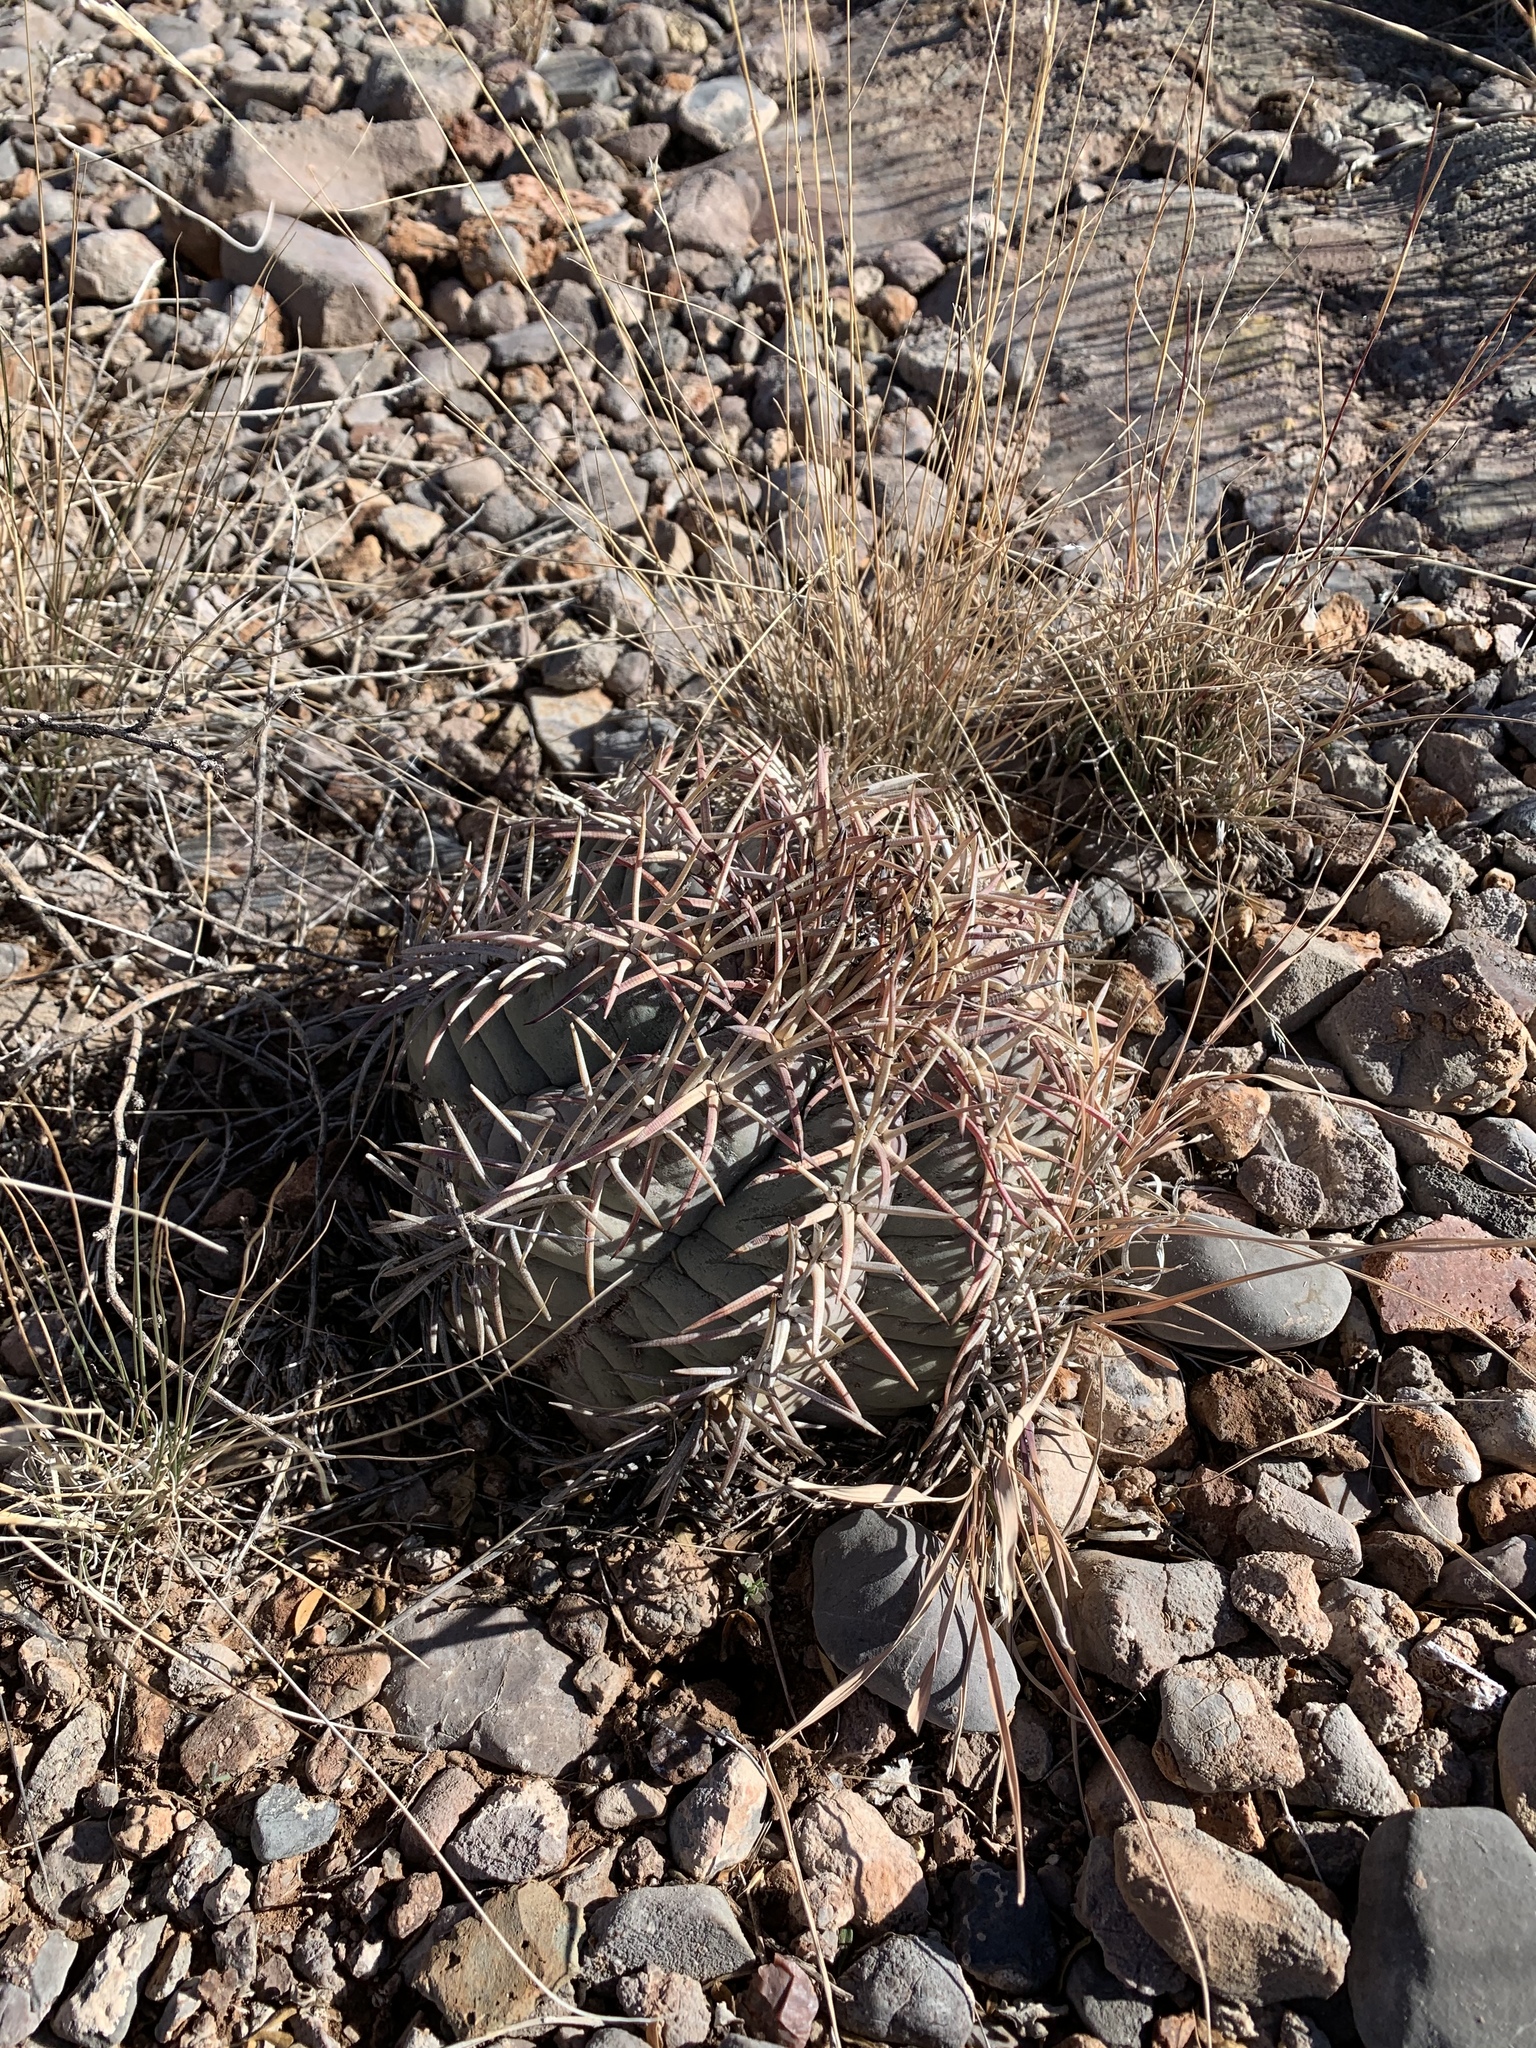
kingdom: Plantae
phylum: Tracheophyta
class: Magnoliopsida
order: Caryophyllales
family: Cactaceae
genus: Echinocactus
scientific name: Echinocactus horizonthalonius
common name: Devilshead
